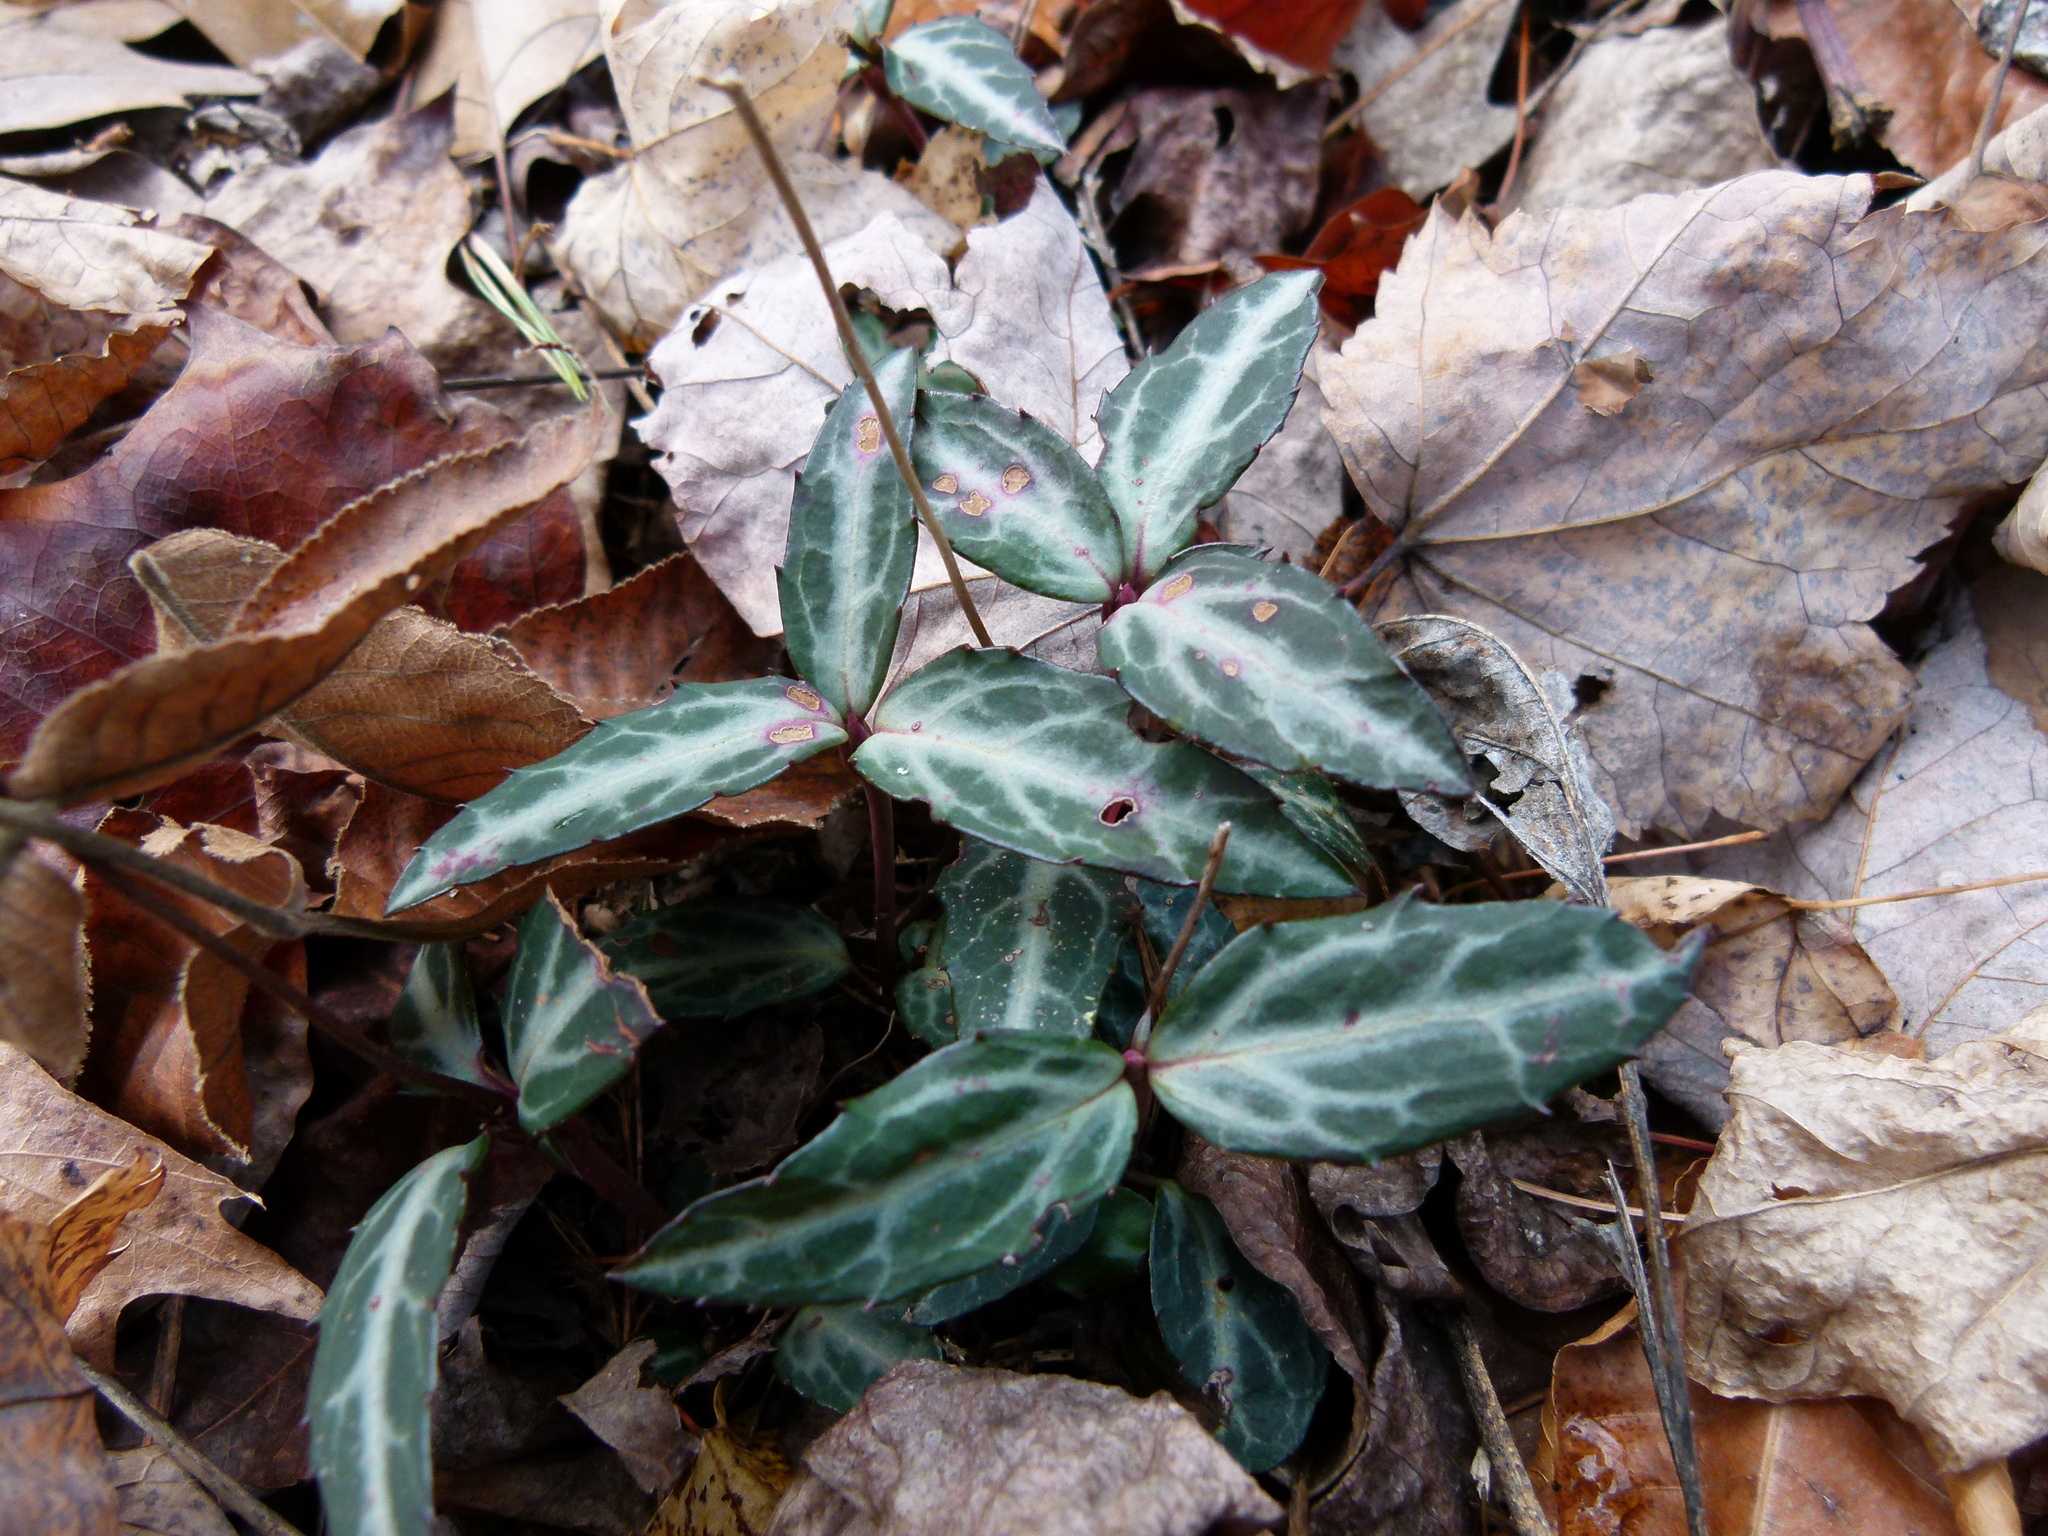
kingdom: Plantae
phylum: Tracheophyta
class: Magnoliopsida
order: Ericales
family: Ericaceae
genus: Chimaphila
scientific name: Chimaphila maculata
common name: Spotted pipsissewa
